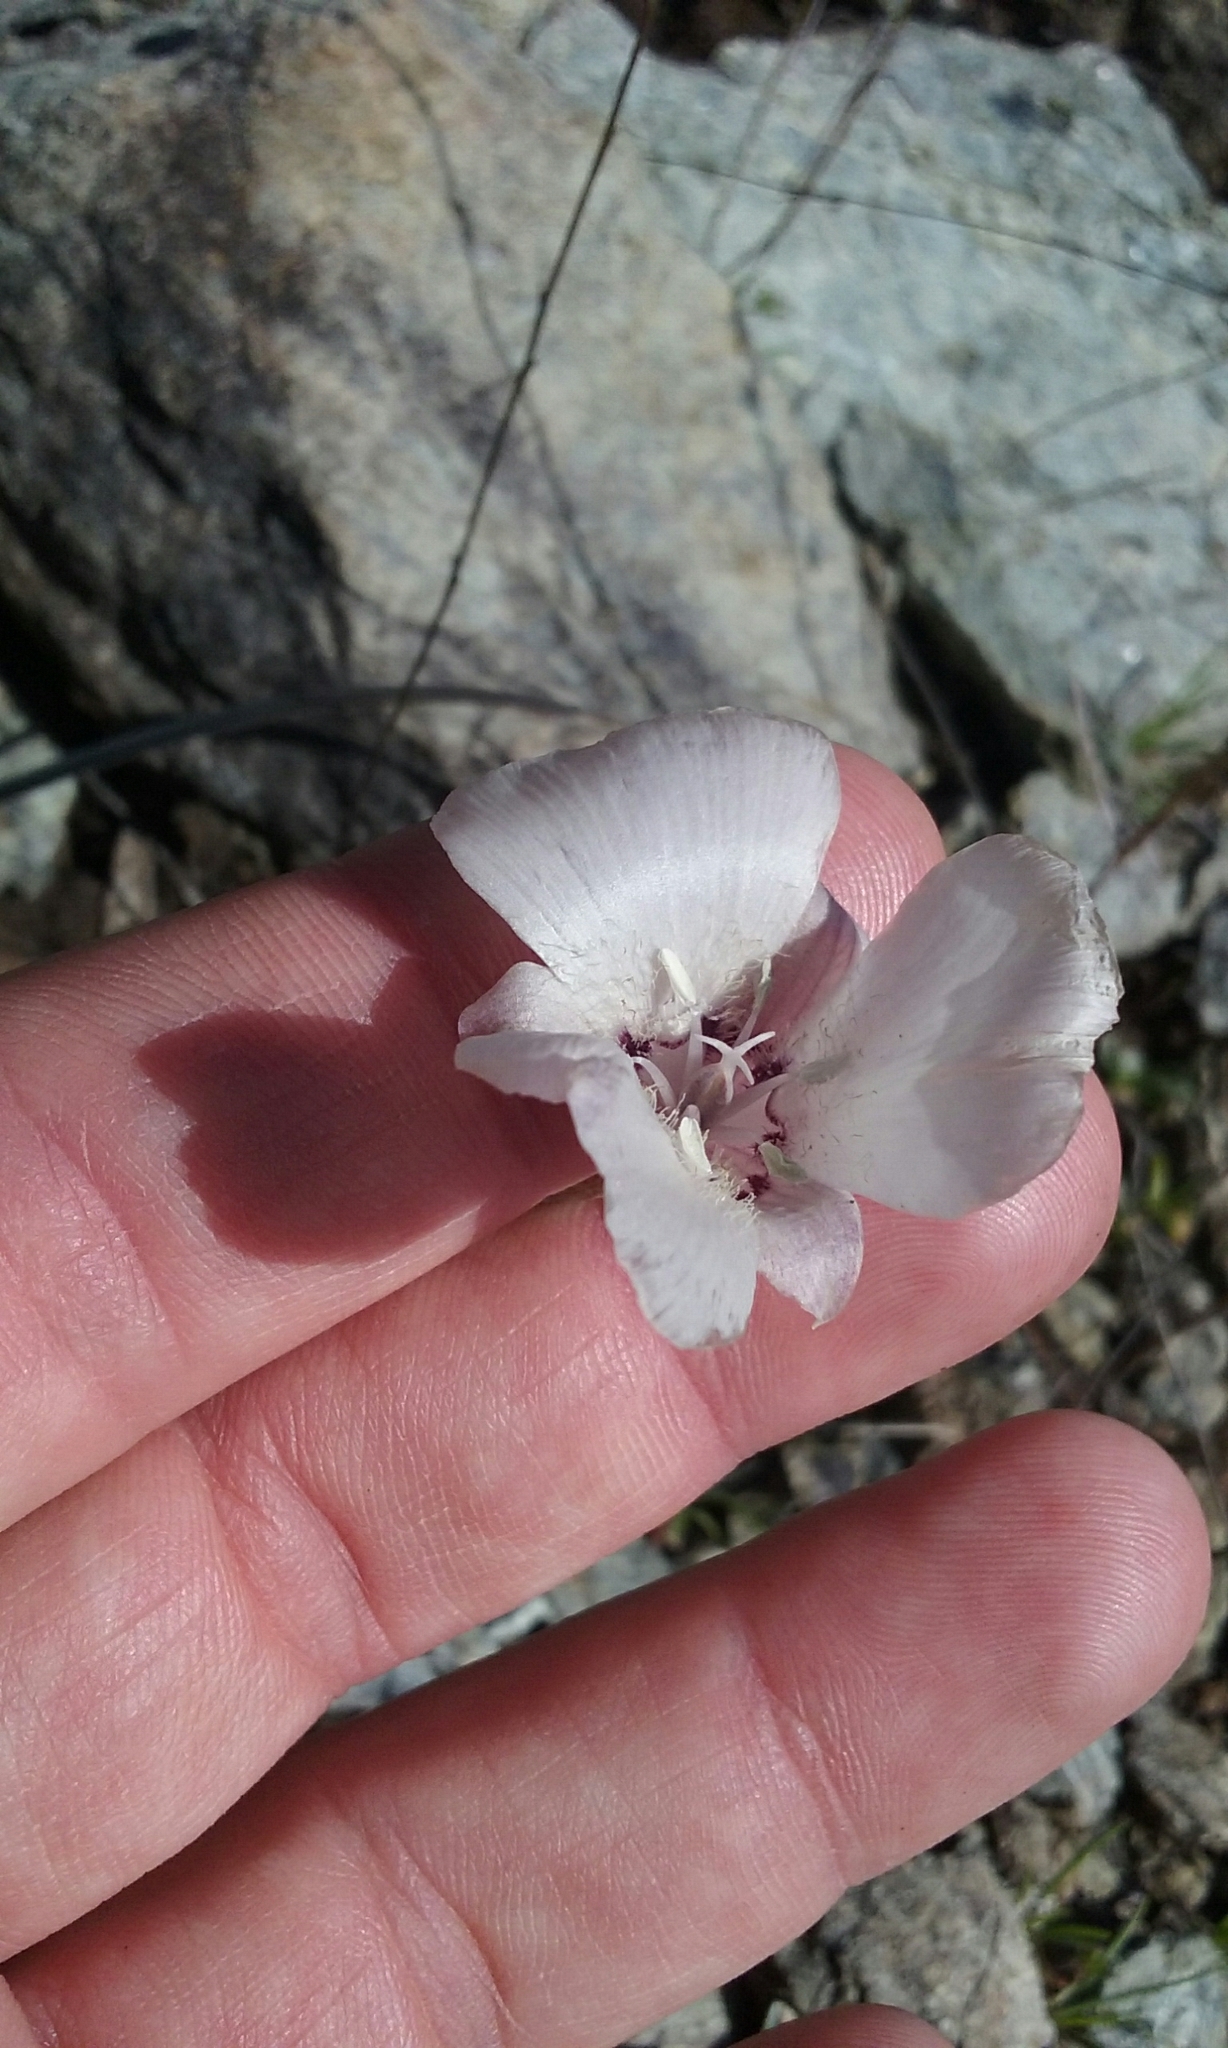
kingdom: Plantae
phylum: Tracheophyta
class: Liliopsida
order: Liliales
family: Liliaceae
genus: Calochortus
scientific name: Calochortus umbellatus
